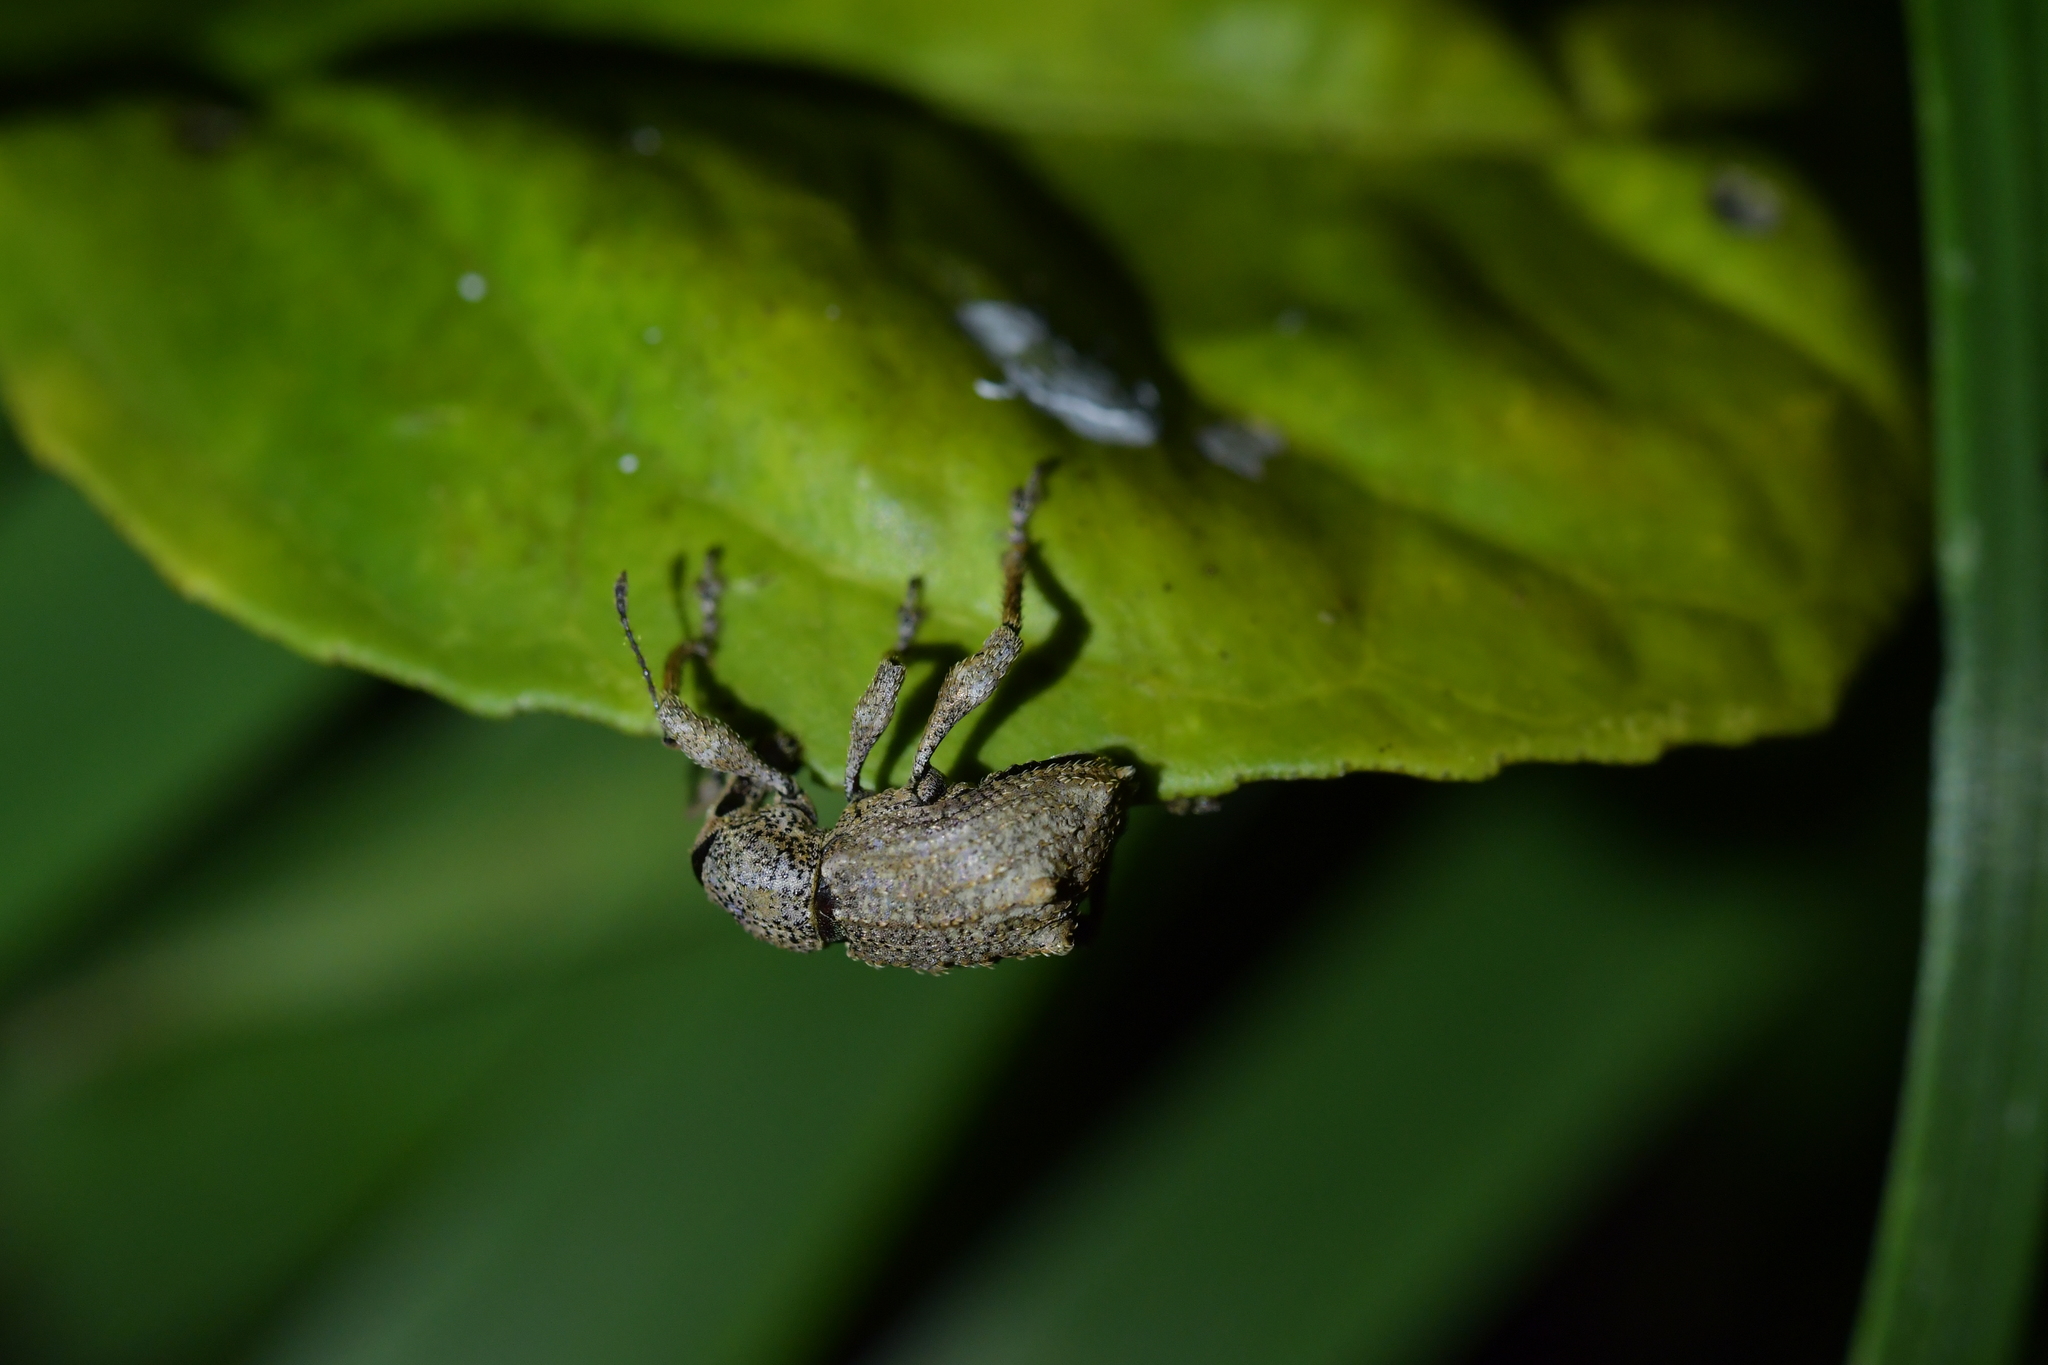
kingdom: Animalia
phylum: Arthropoda
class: Insecta
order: Coleoptera
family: Curculionidae
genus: Catoptes
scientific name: Catoptes binodis
